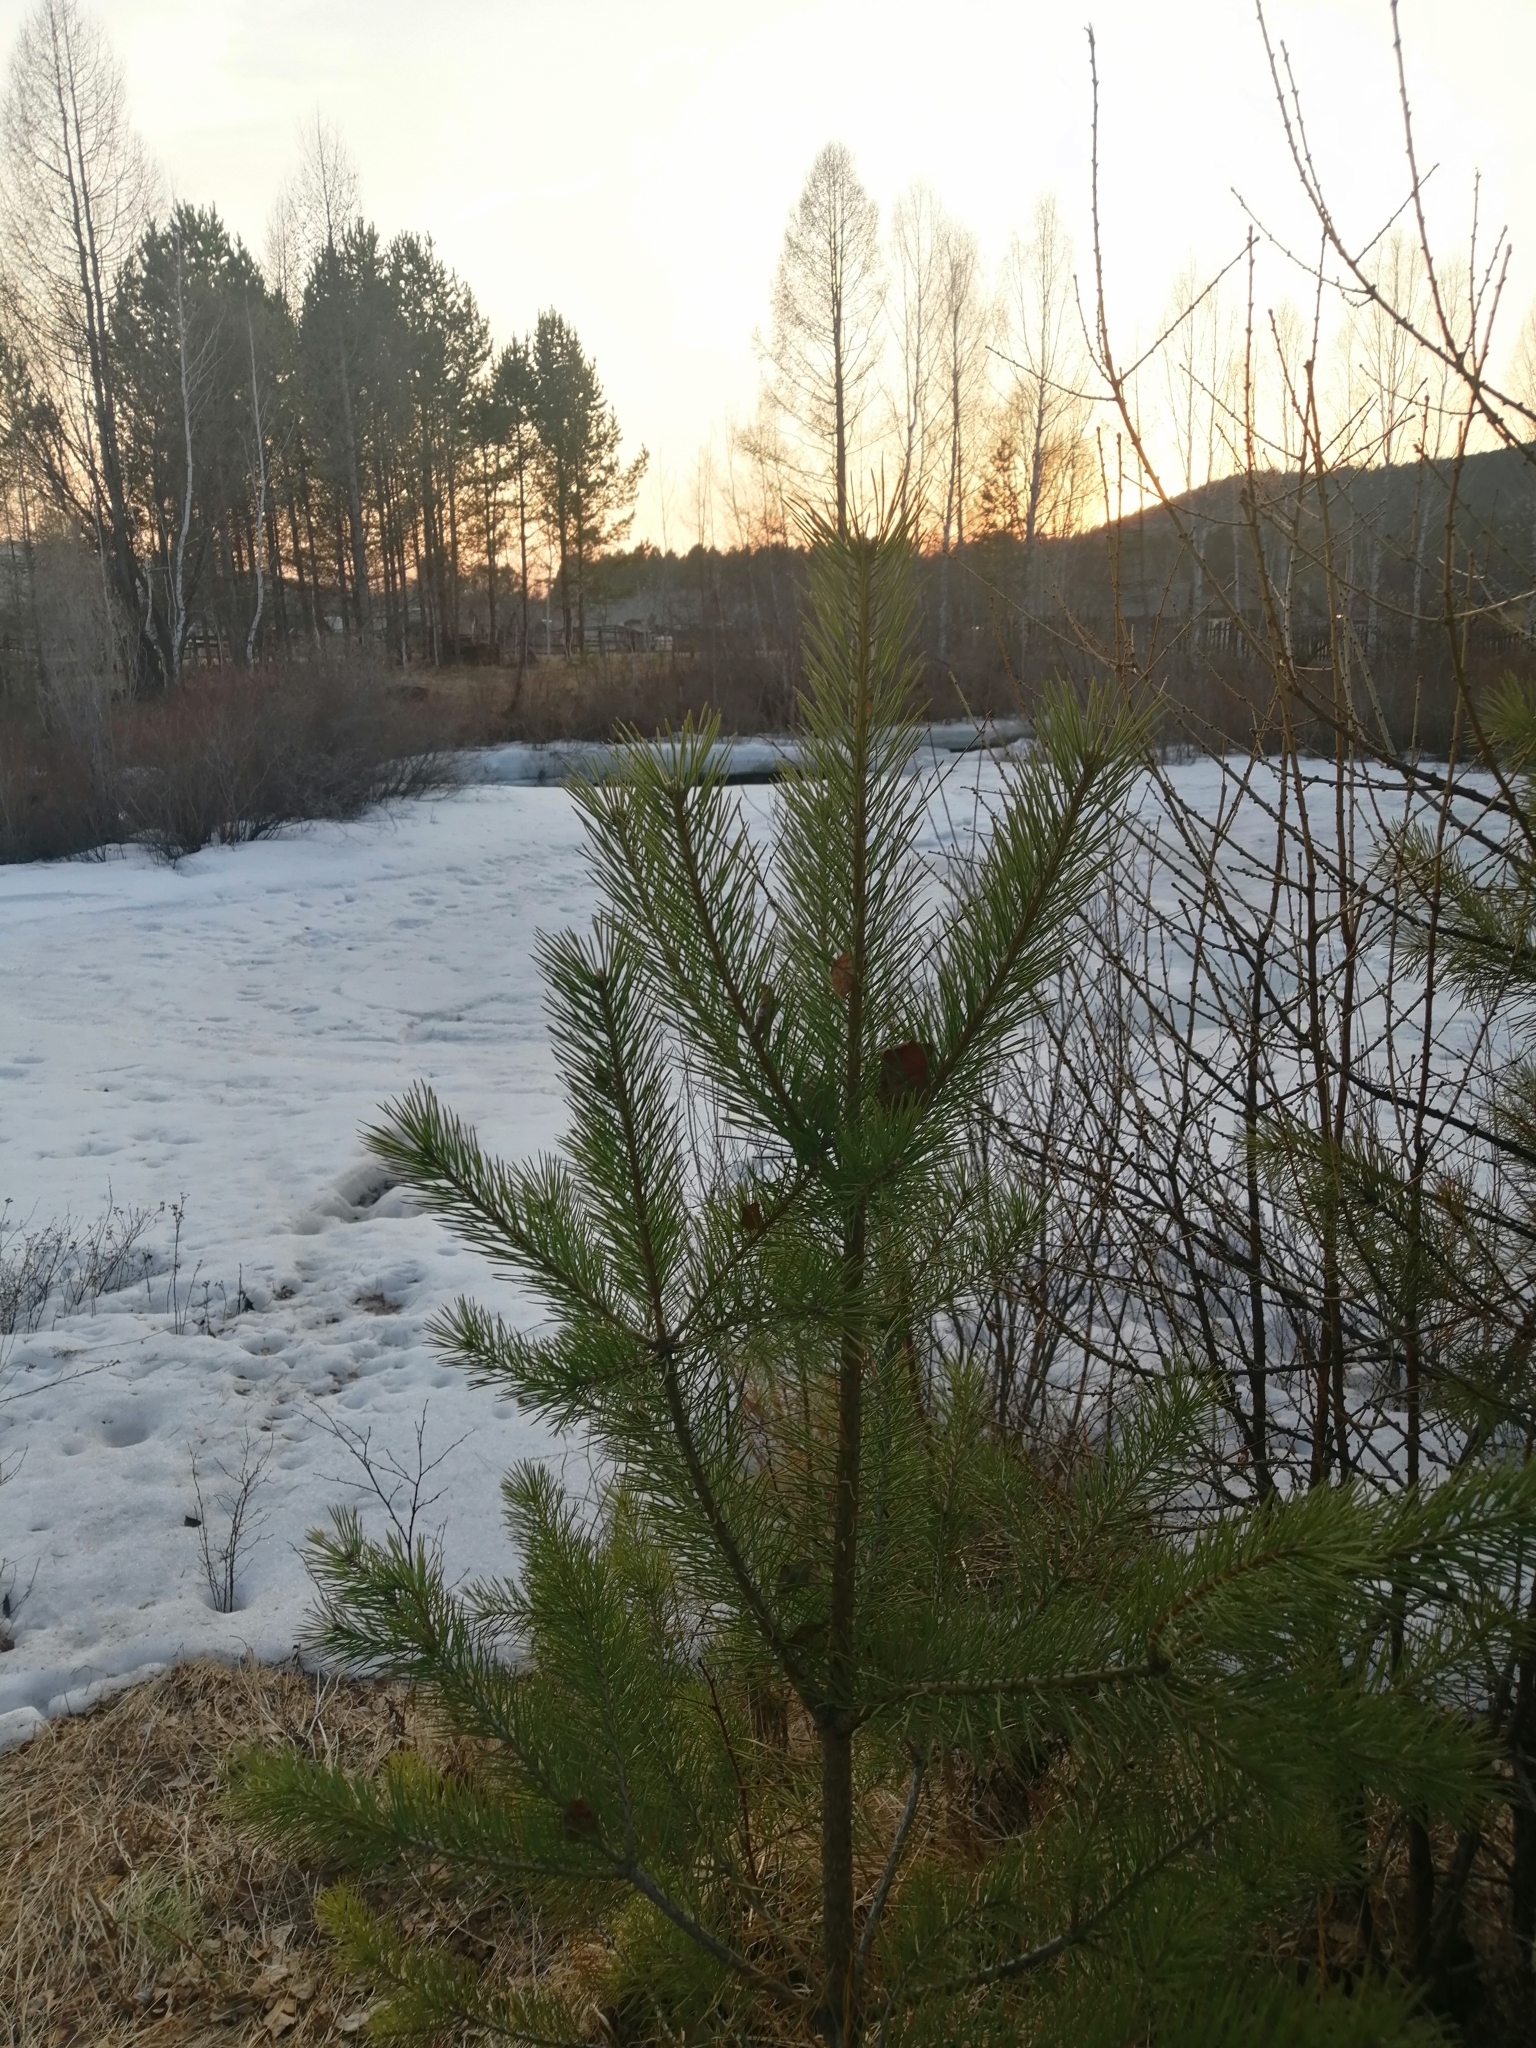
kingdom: Plantae
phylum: Tracheophyta
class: Pinopsida
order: Pinales
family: Pinaceae
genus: Pinus
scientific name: Pinus sylvestris
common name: Scots pine
